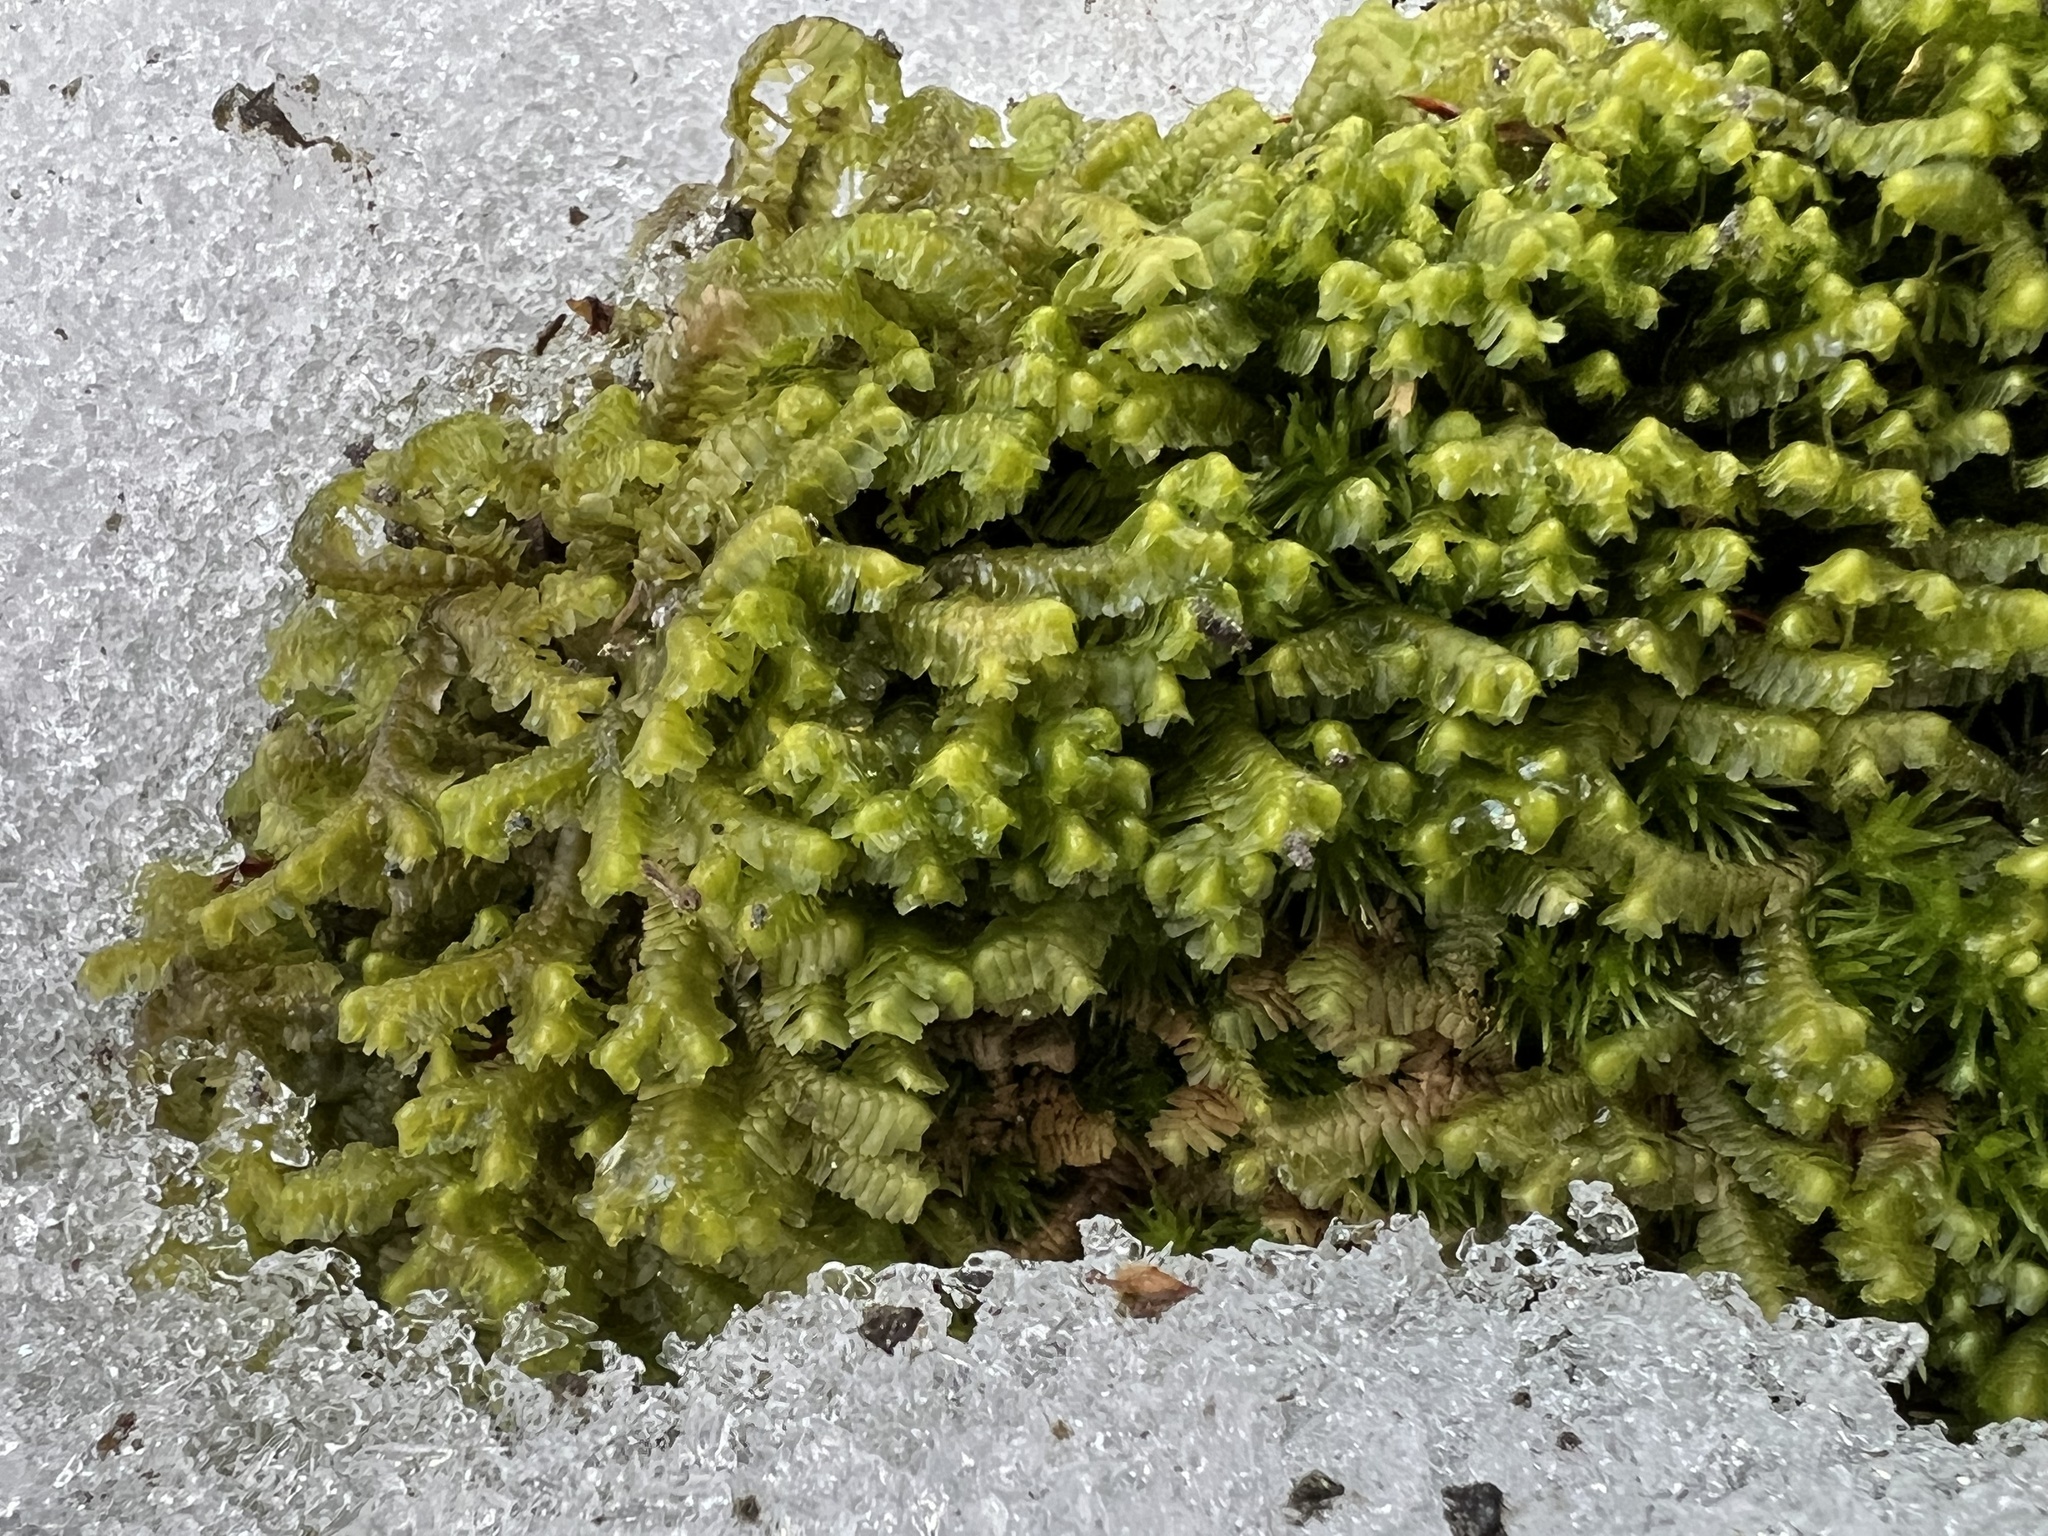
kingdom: Plantae
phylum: Marchantiophyta
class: Jungermanniopsida
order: Jungermanniales
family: Lepidoziaceae
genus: Bazzania
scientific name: Bazzania trilobata
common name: Three-lobed whipwort
